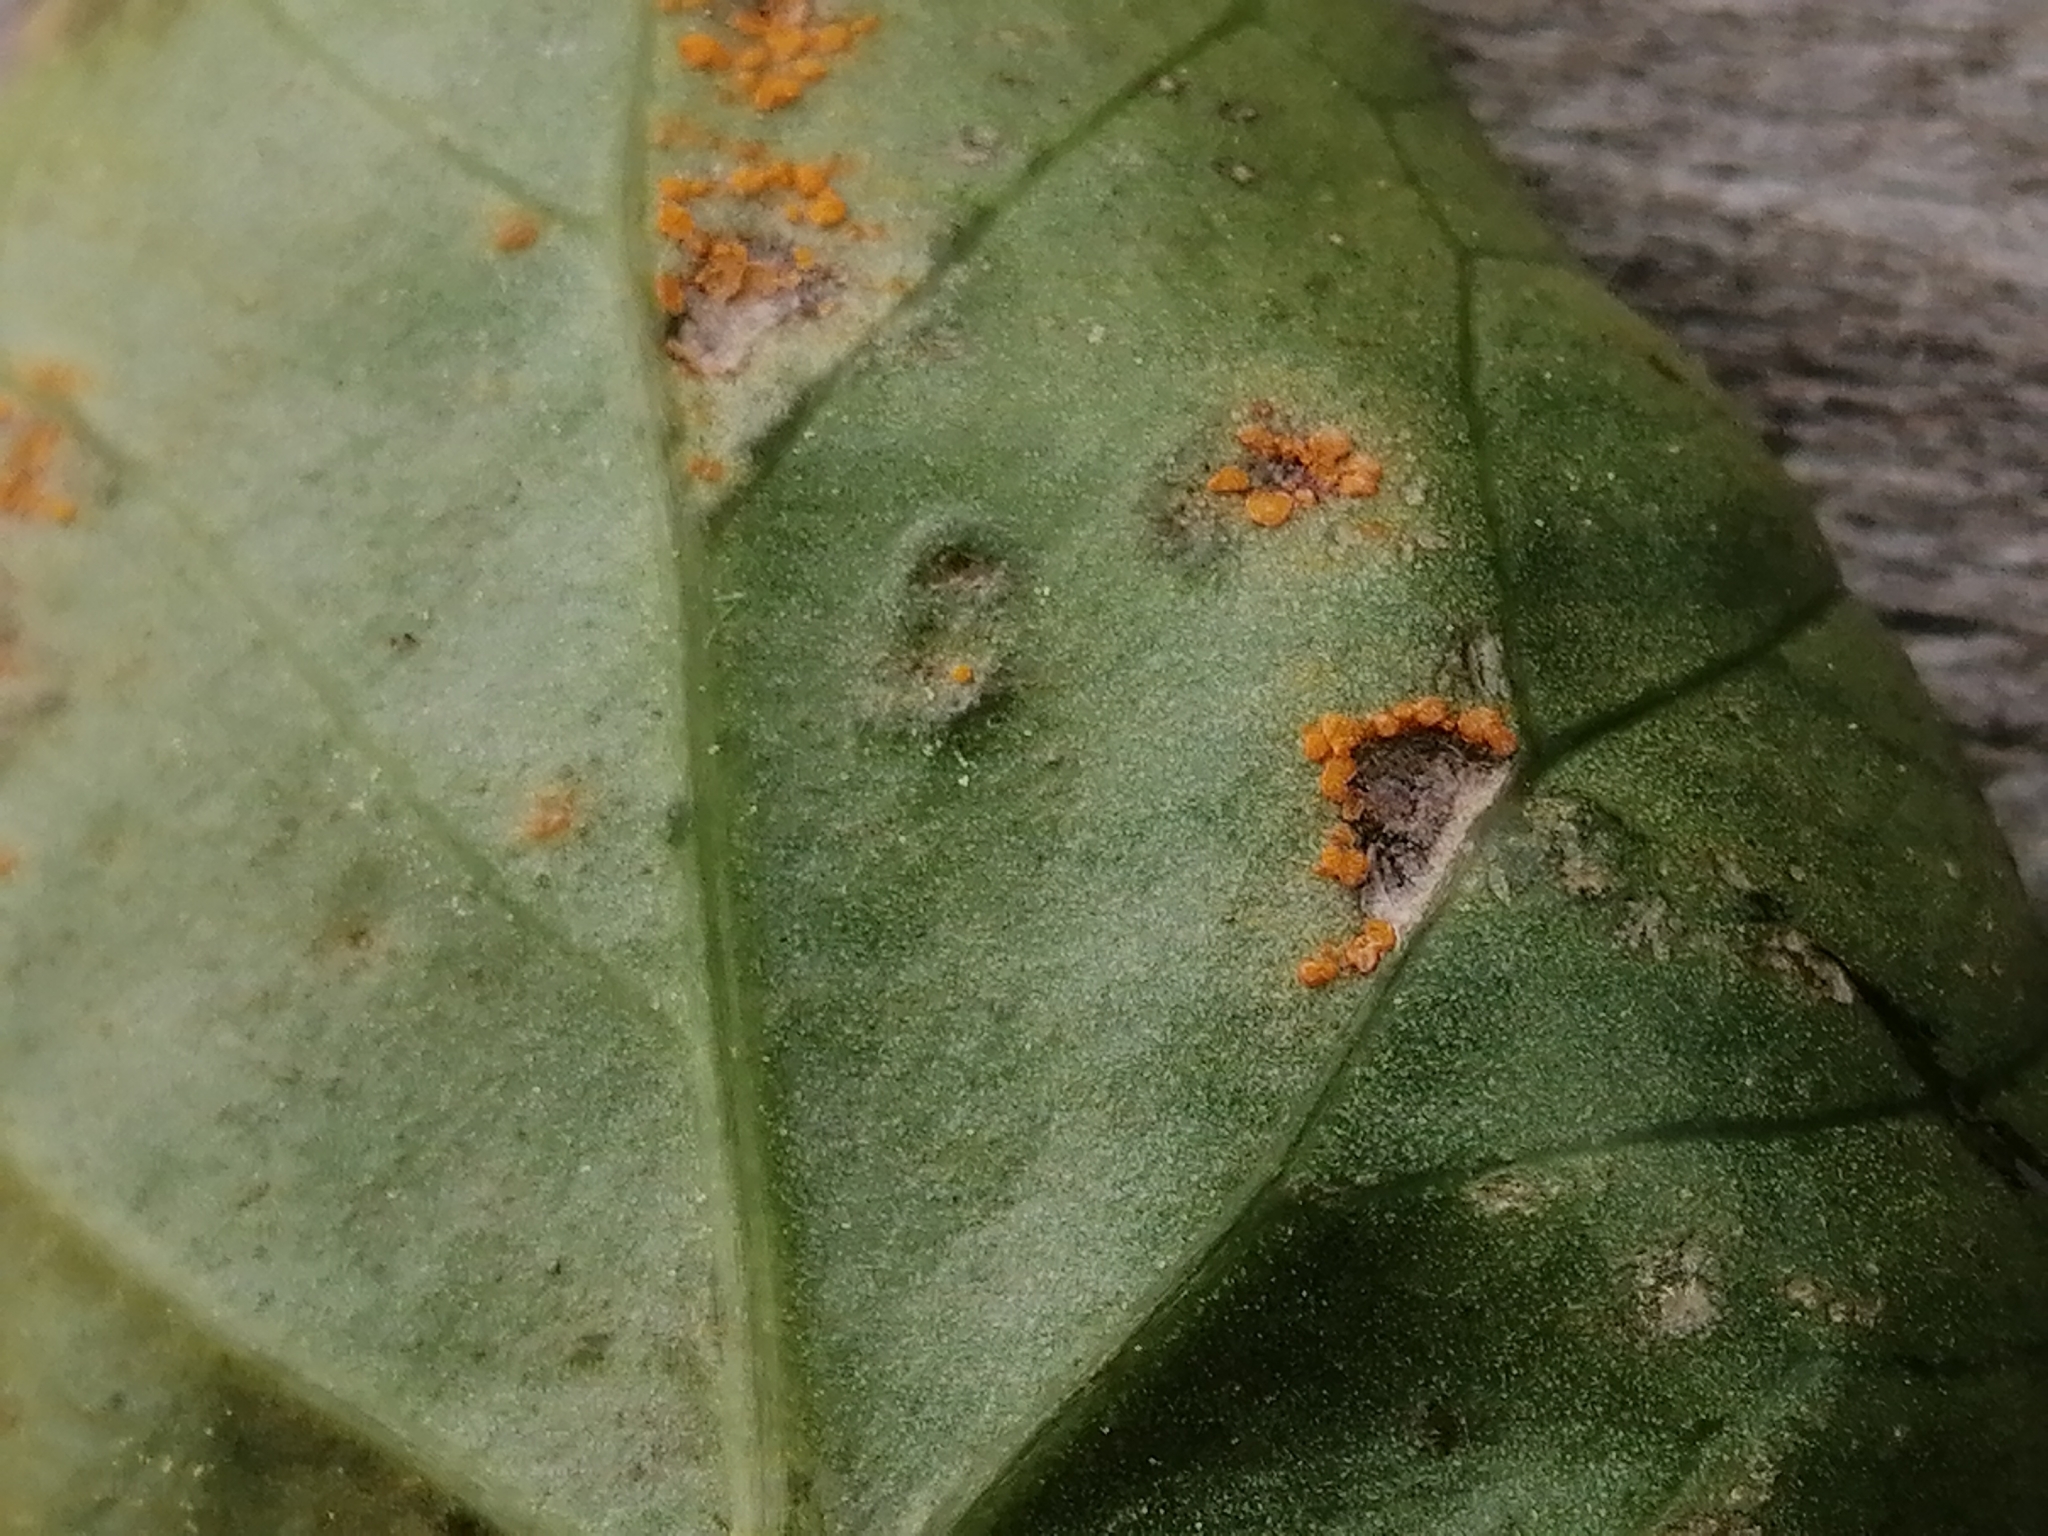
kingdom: Fungi
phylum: Basidiomycota
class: Pucciniomycetes
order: Pucciniales
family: Coleosporiaceae
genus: Coleosporium
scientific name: Coleosporium tussilaginis
